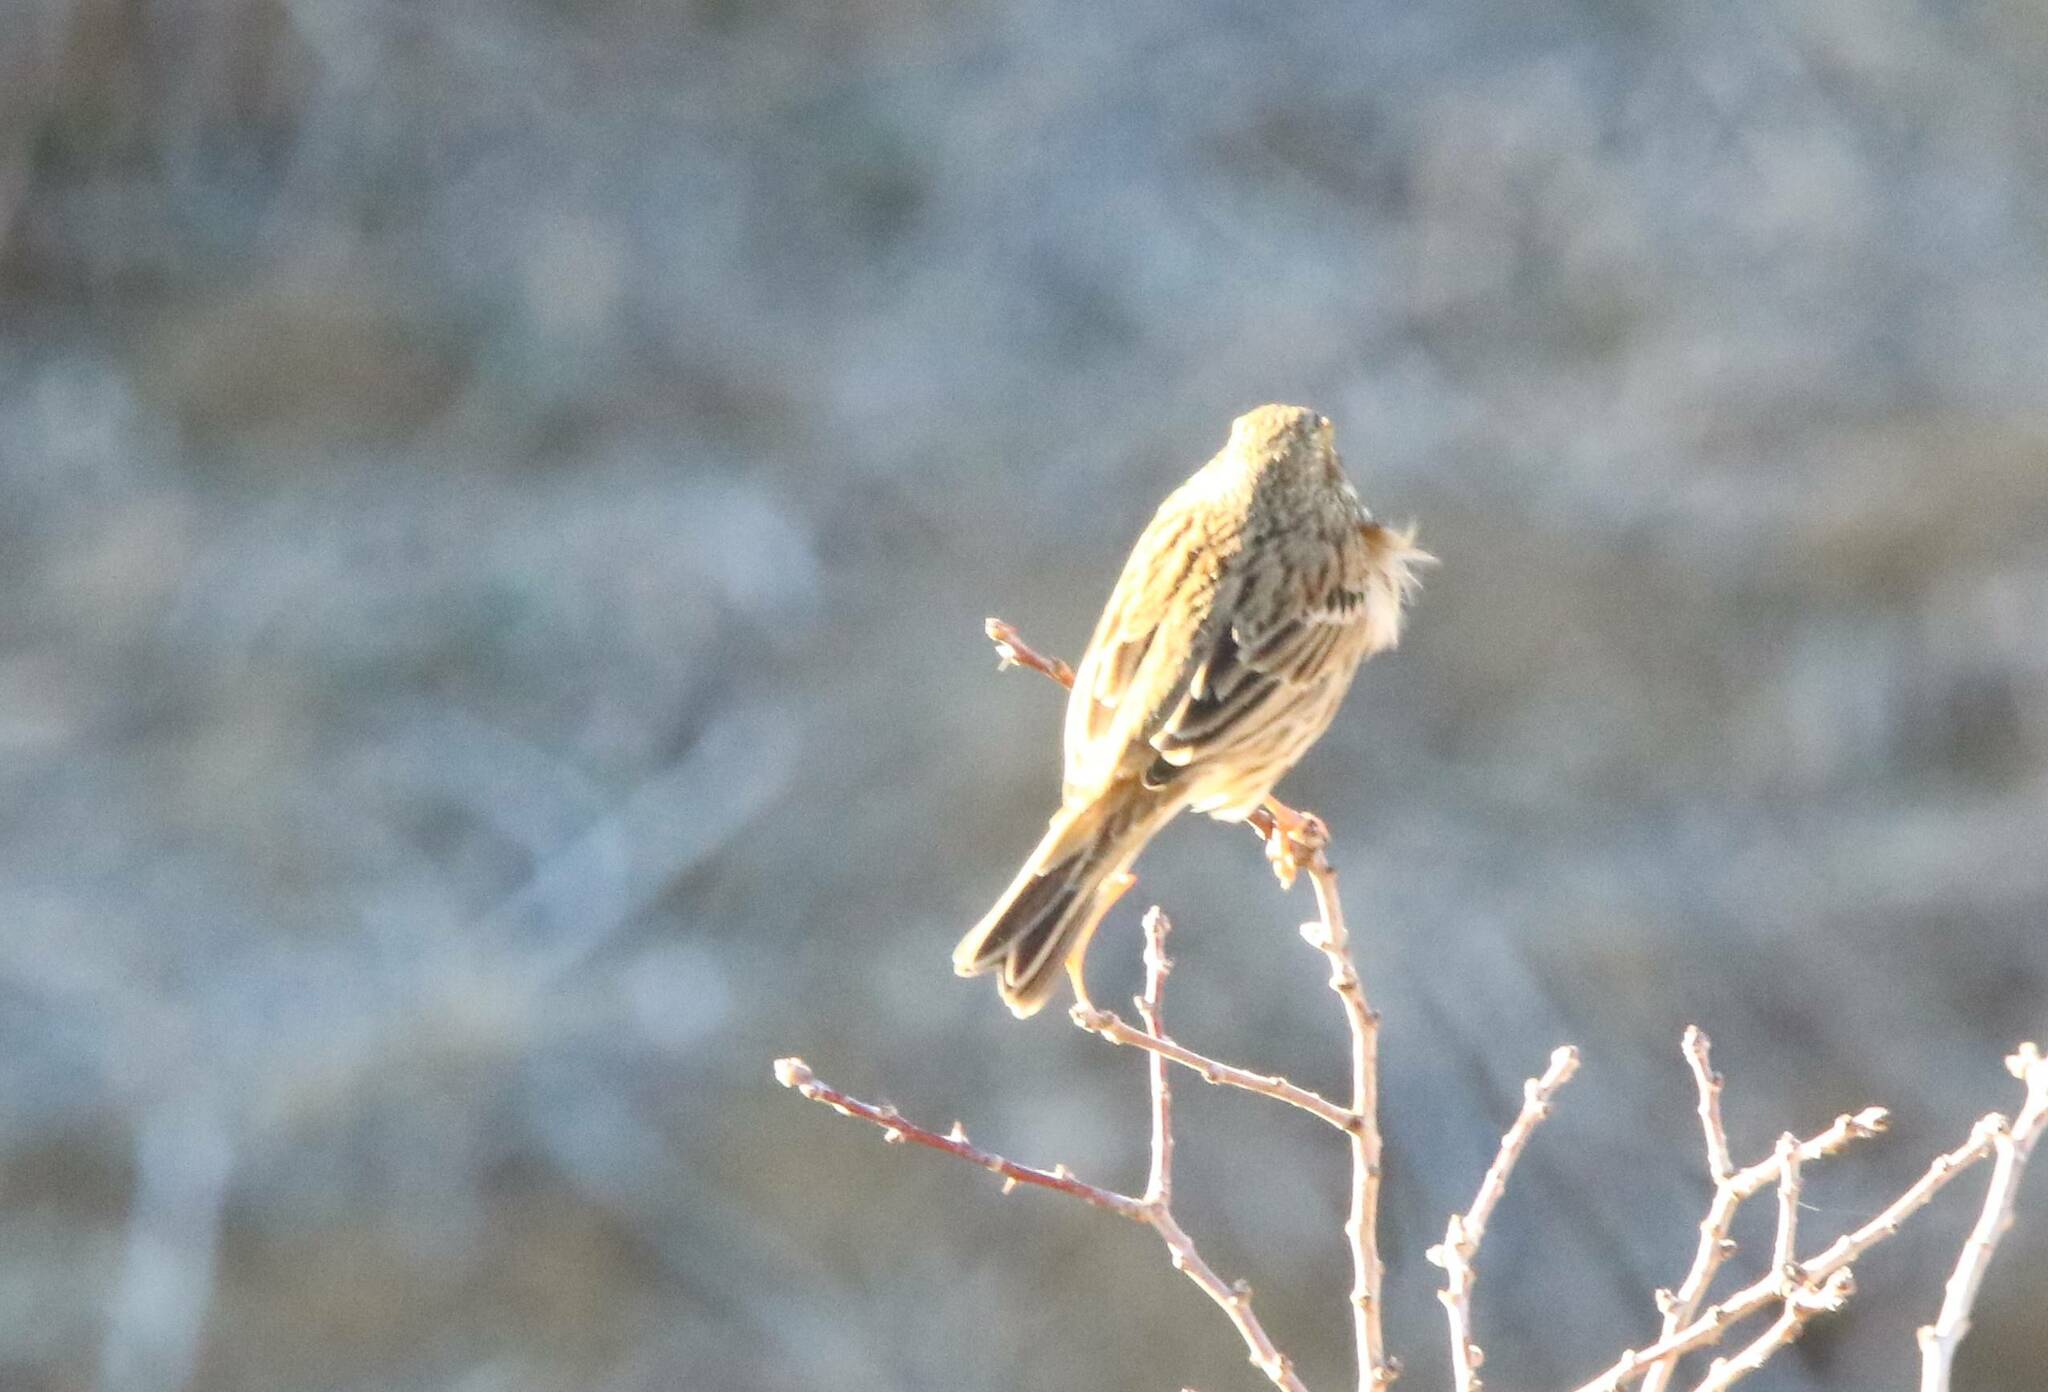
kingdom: Animalia
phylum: Chordata
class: Aves
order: Passeriformes
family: Emberizidae
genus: Emberiza
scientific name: Emberiza calandra
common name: Corn bunting
